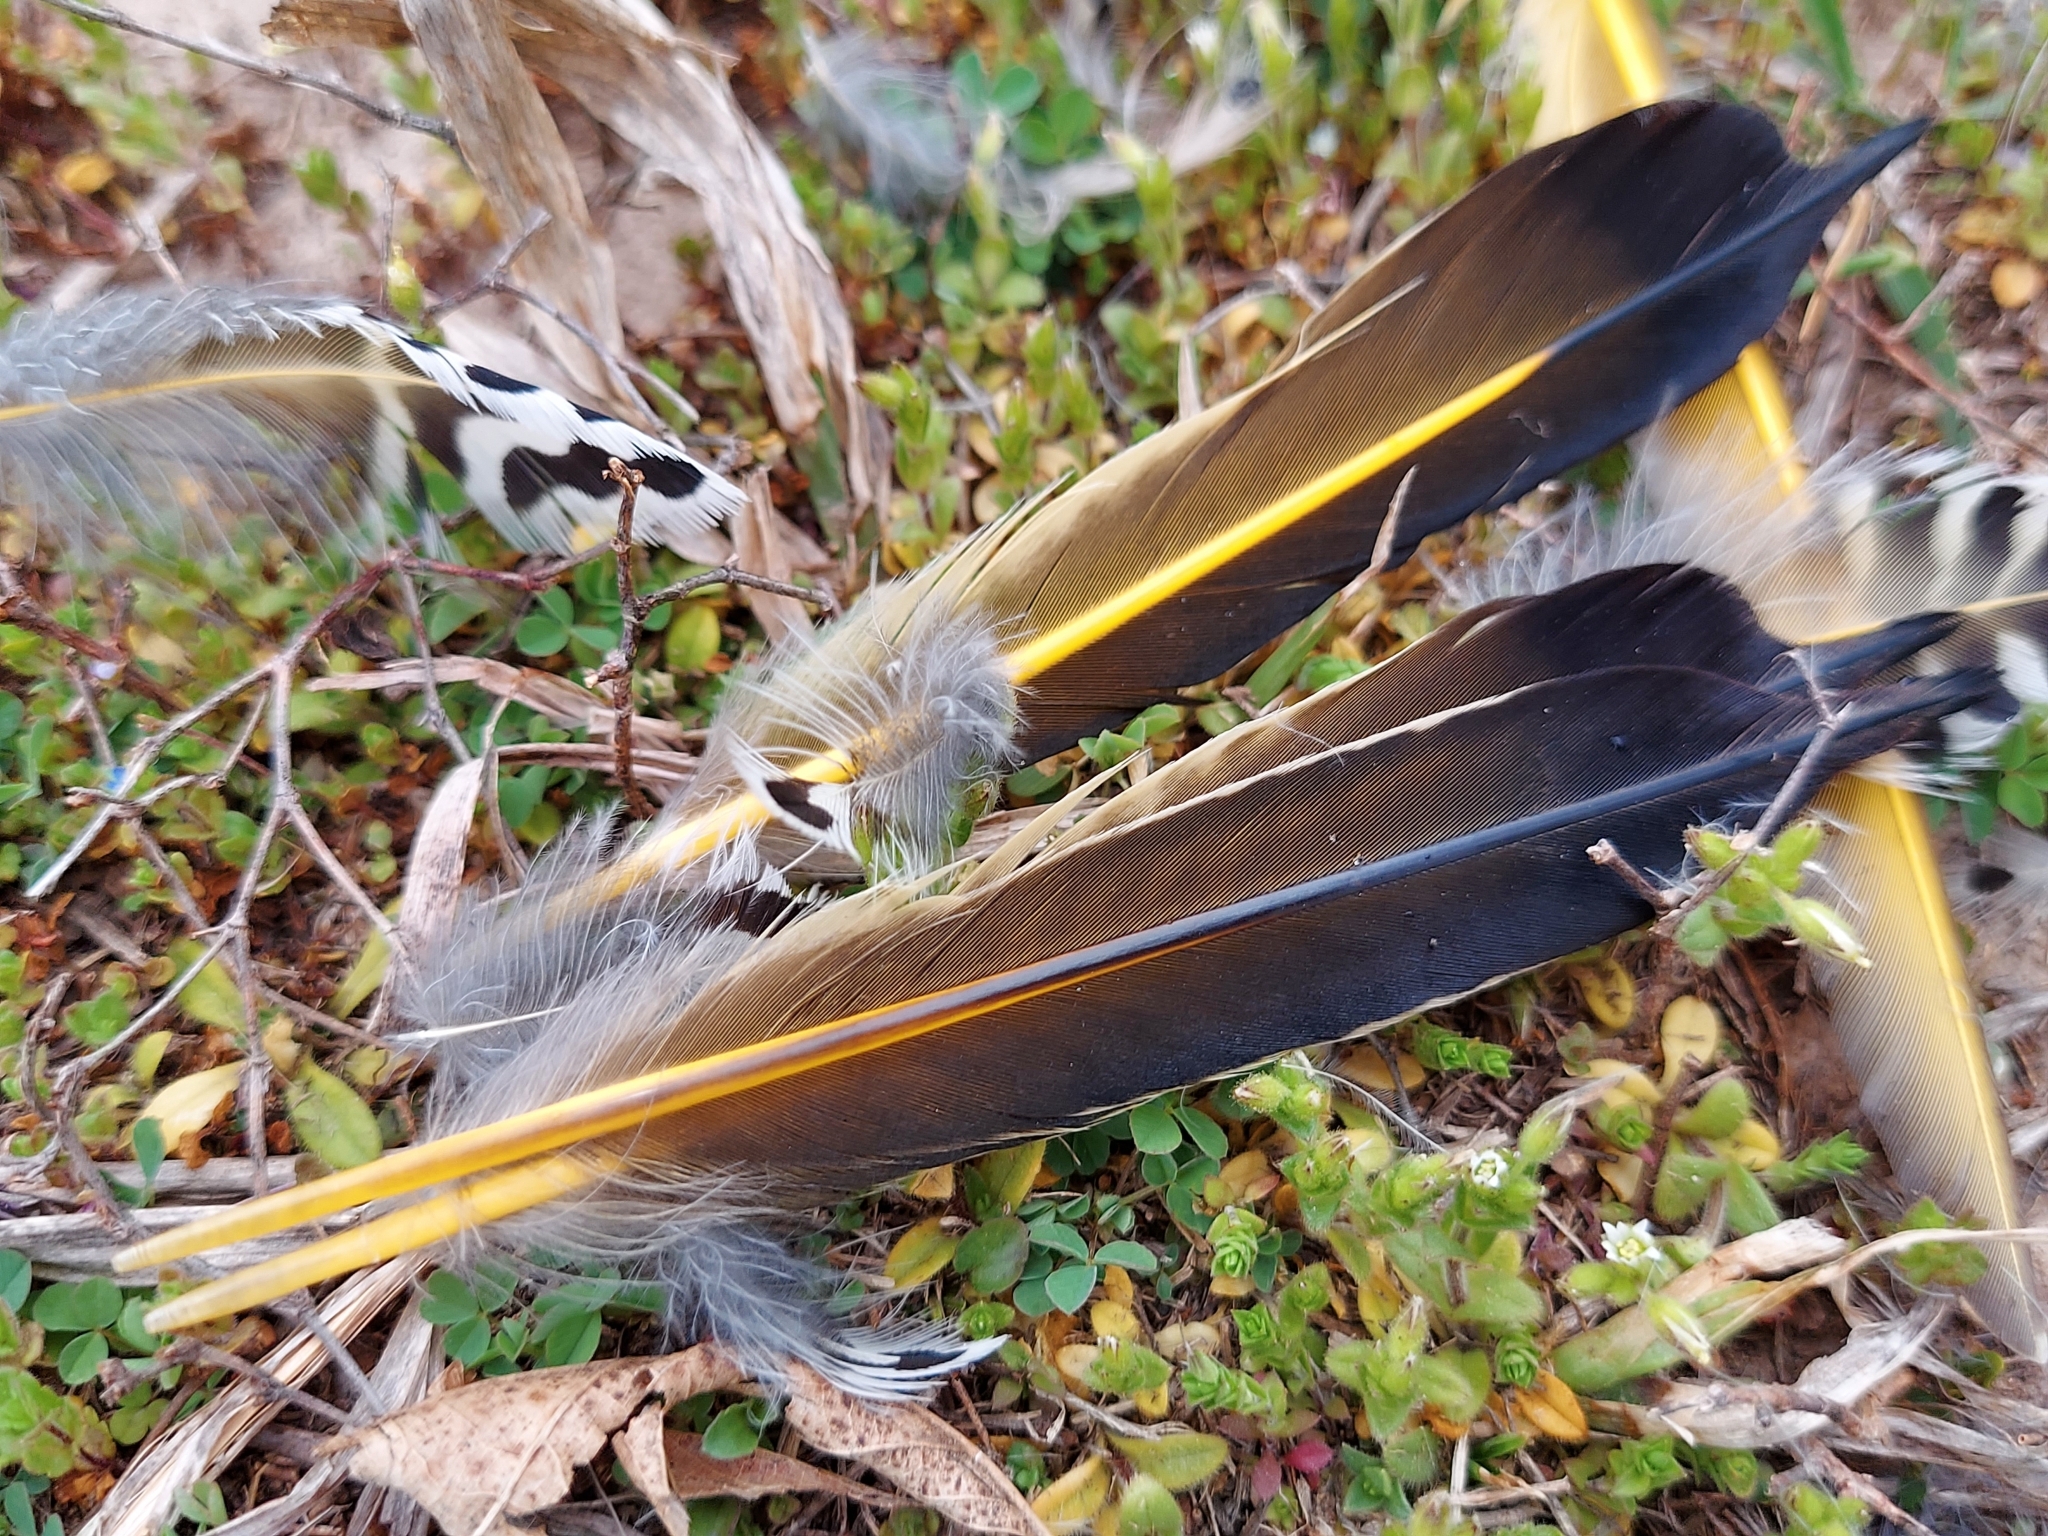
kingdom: Animalia
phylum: Chordata
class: Aves
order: Piciformes
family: Picidae
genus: Colaptes
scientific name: Colaptes auratus
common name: Northern flicker
